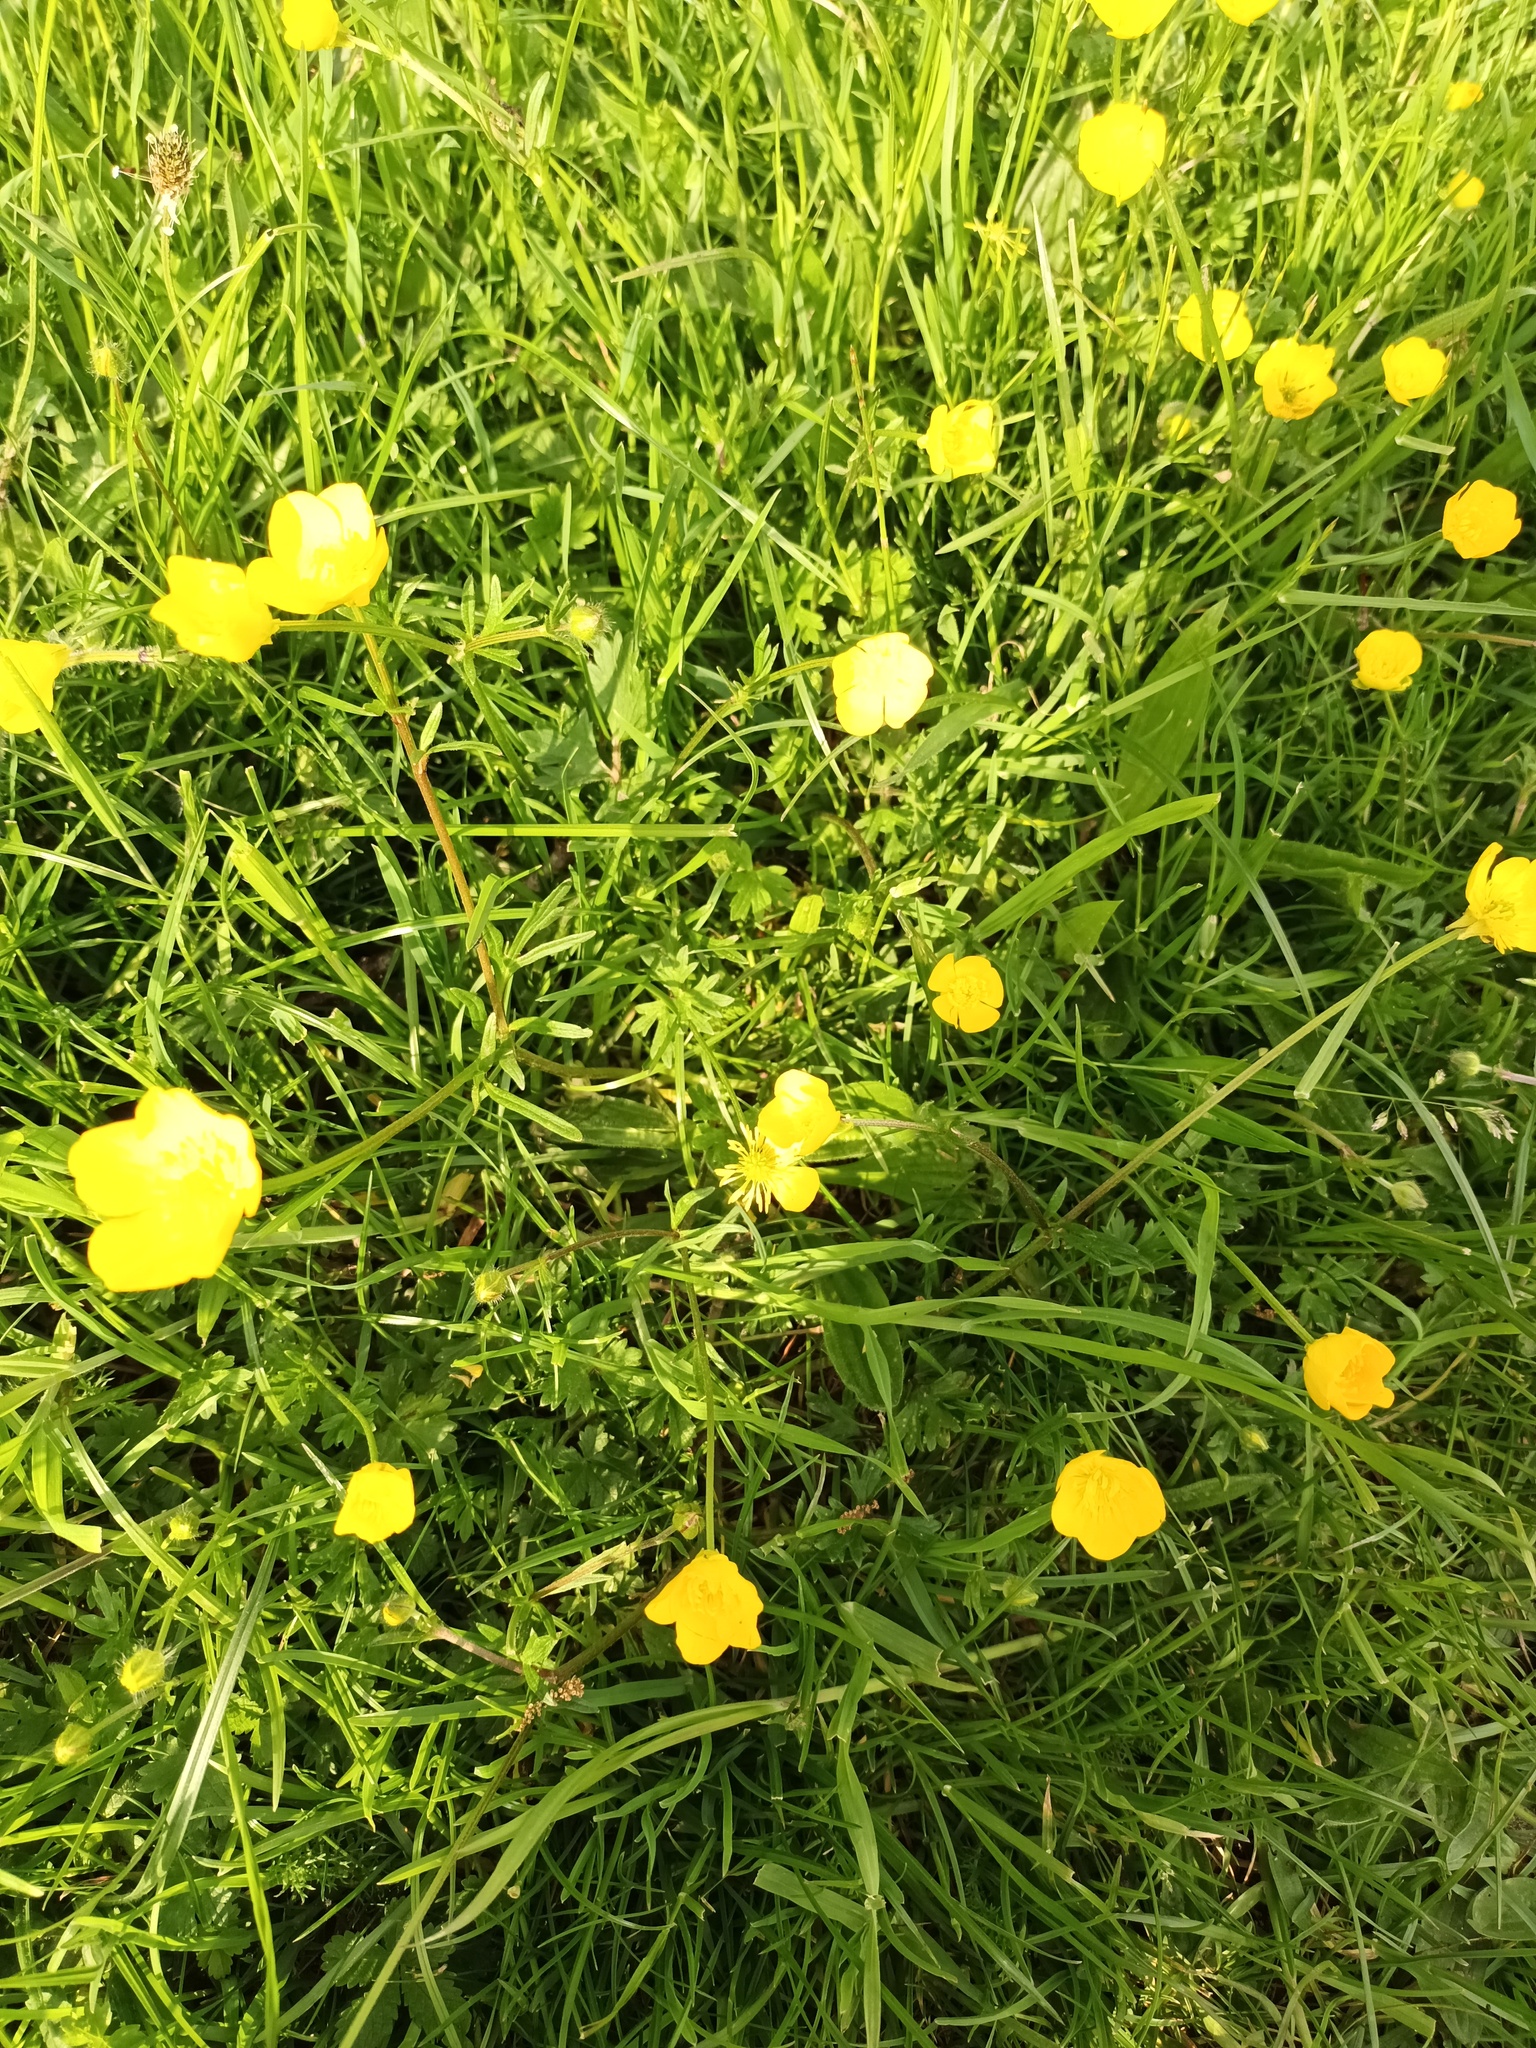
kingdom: Plantae
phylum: Tracheophyta
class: Magnoliopsida
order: Ranunculales
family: Ranunculaceae
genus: Ranunculus
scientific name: Ranunculus bulbosus
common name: Bulbous buttercup
